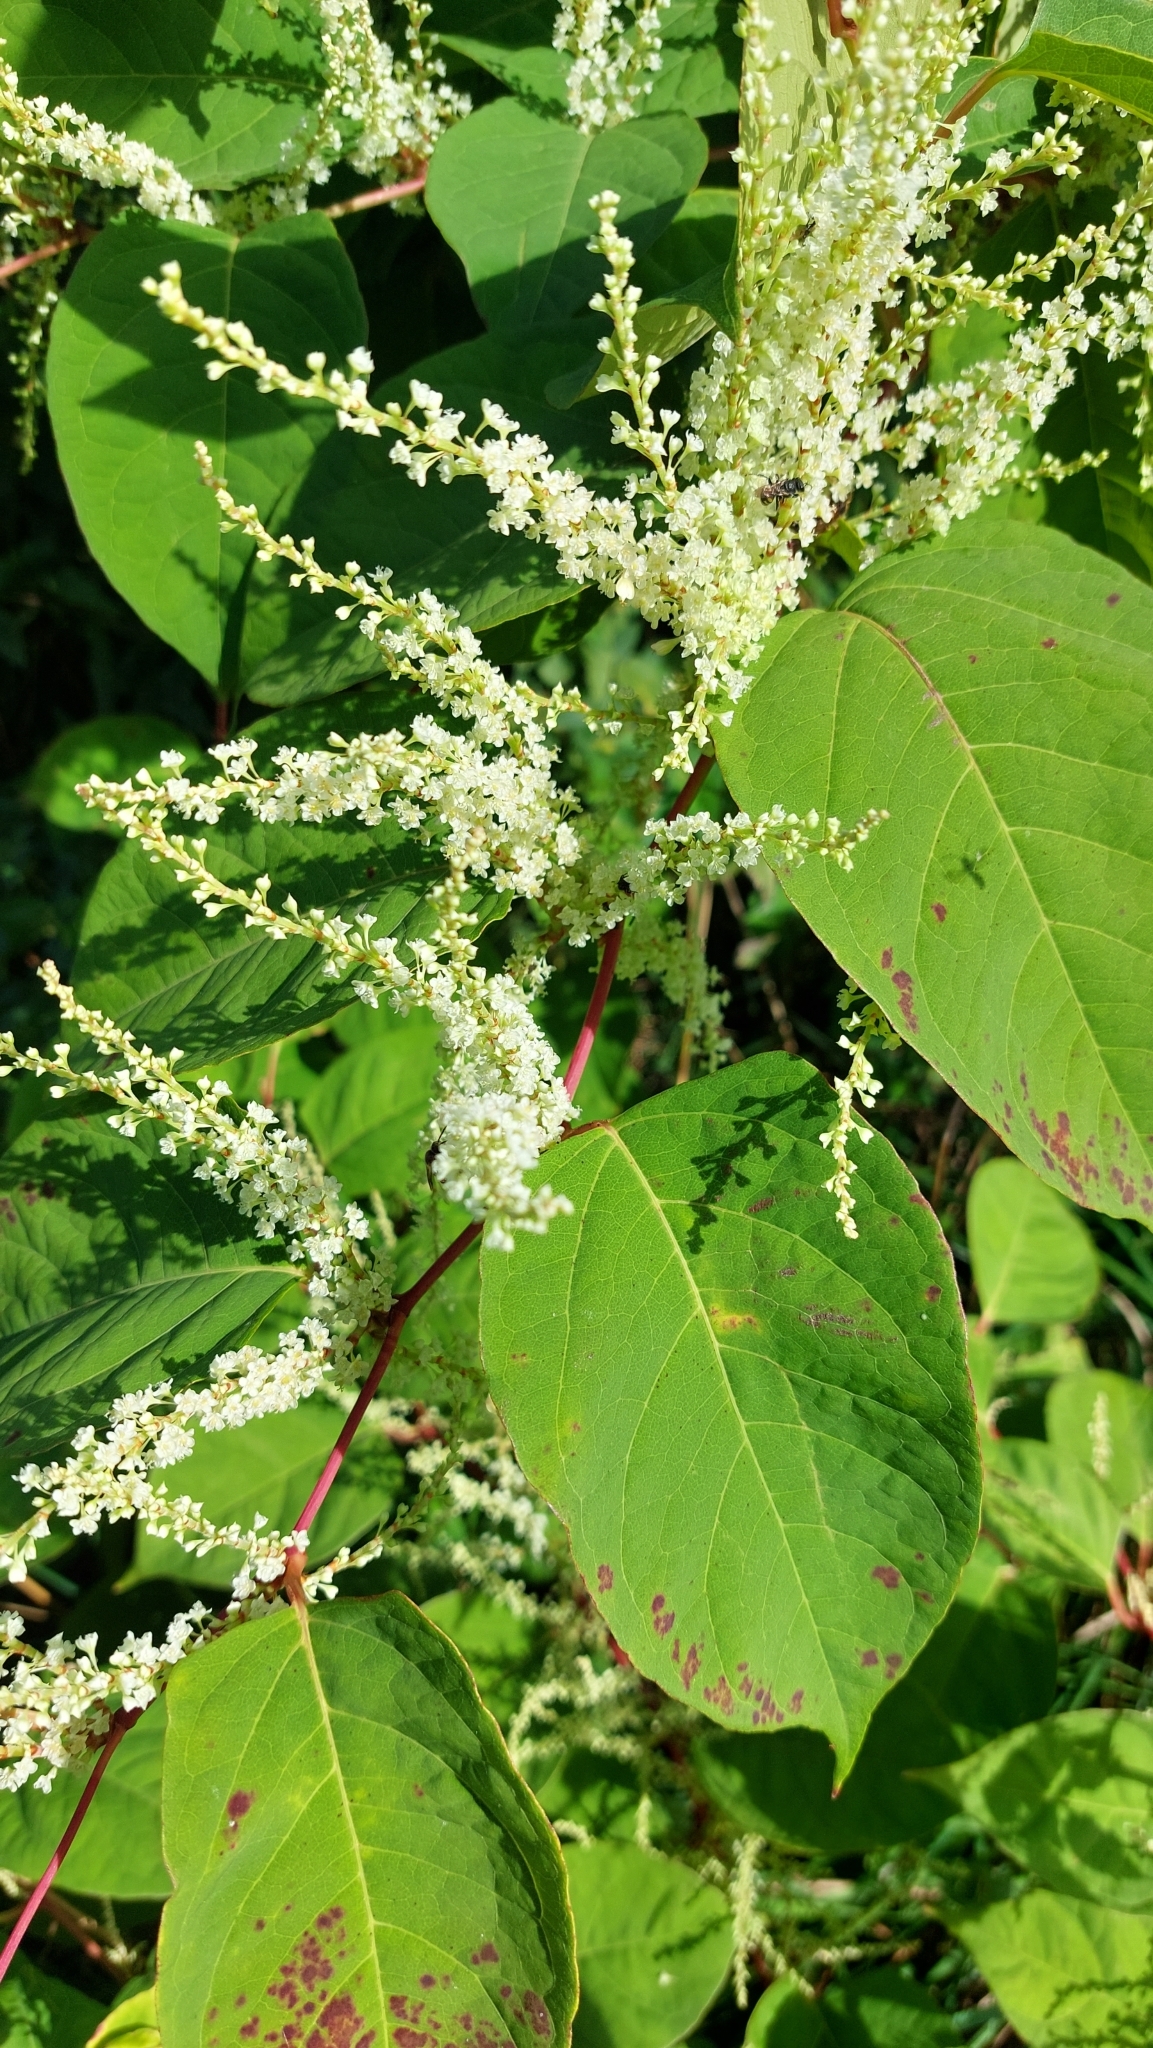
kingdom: Plantae
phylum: Tracheophyta
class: Magnoliopsida
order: Caryophyllales
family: Polygonaceae
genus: Reynoutria
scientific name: Reynoutria japonica
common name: Japanese knotweed
